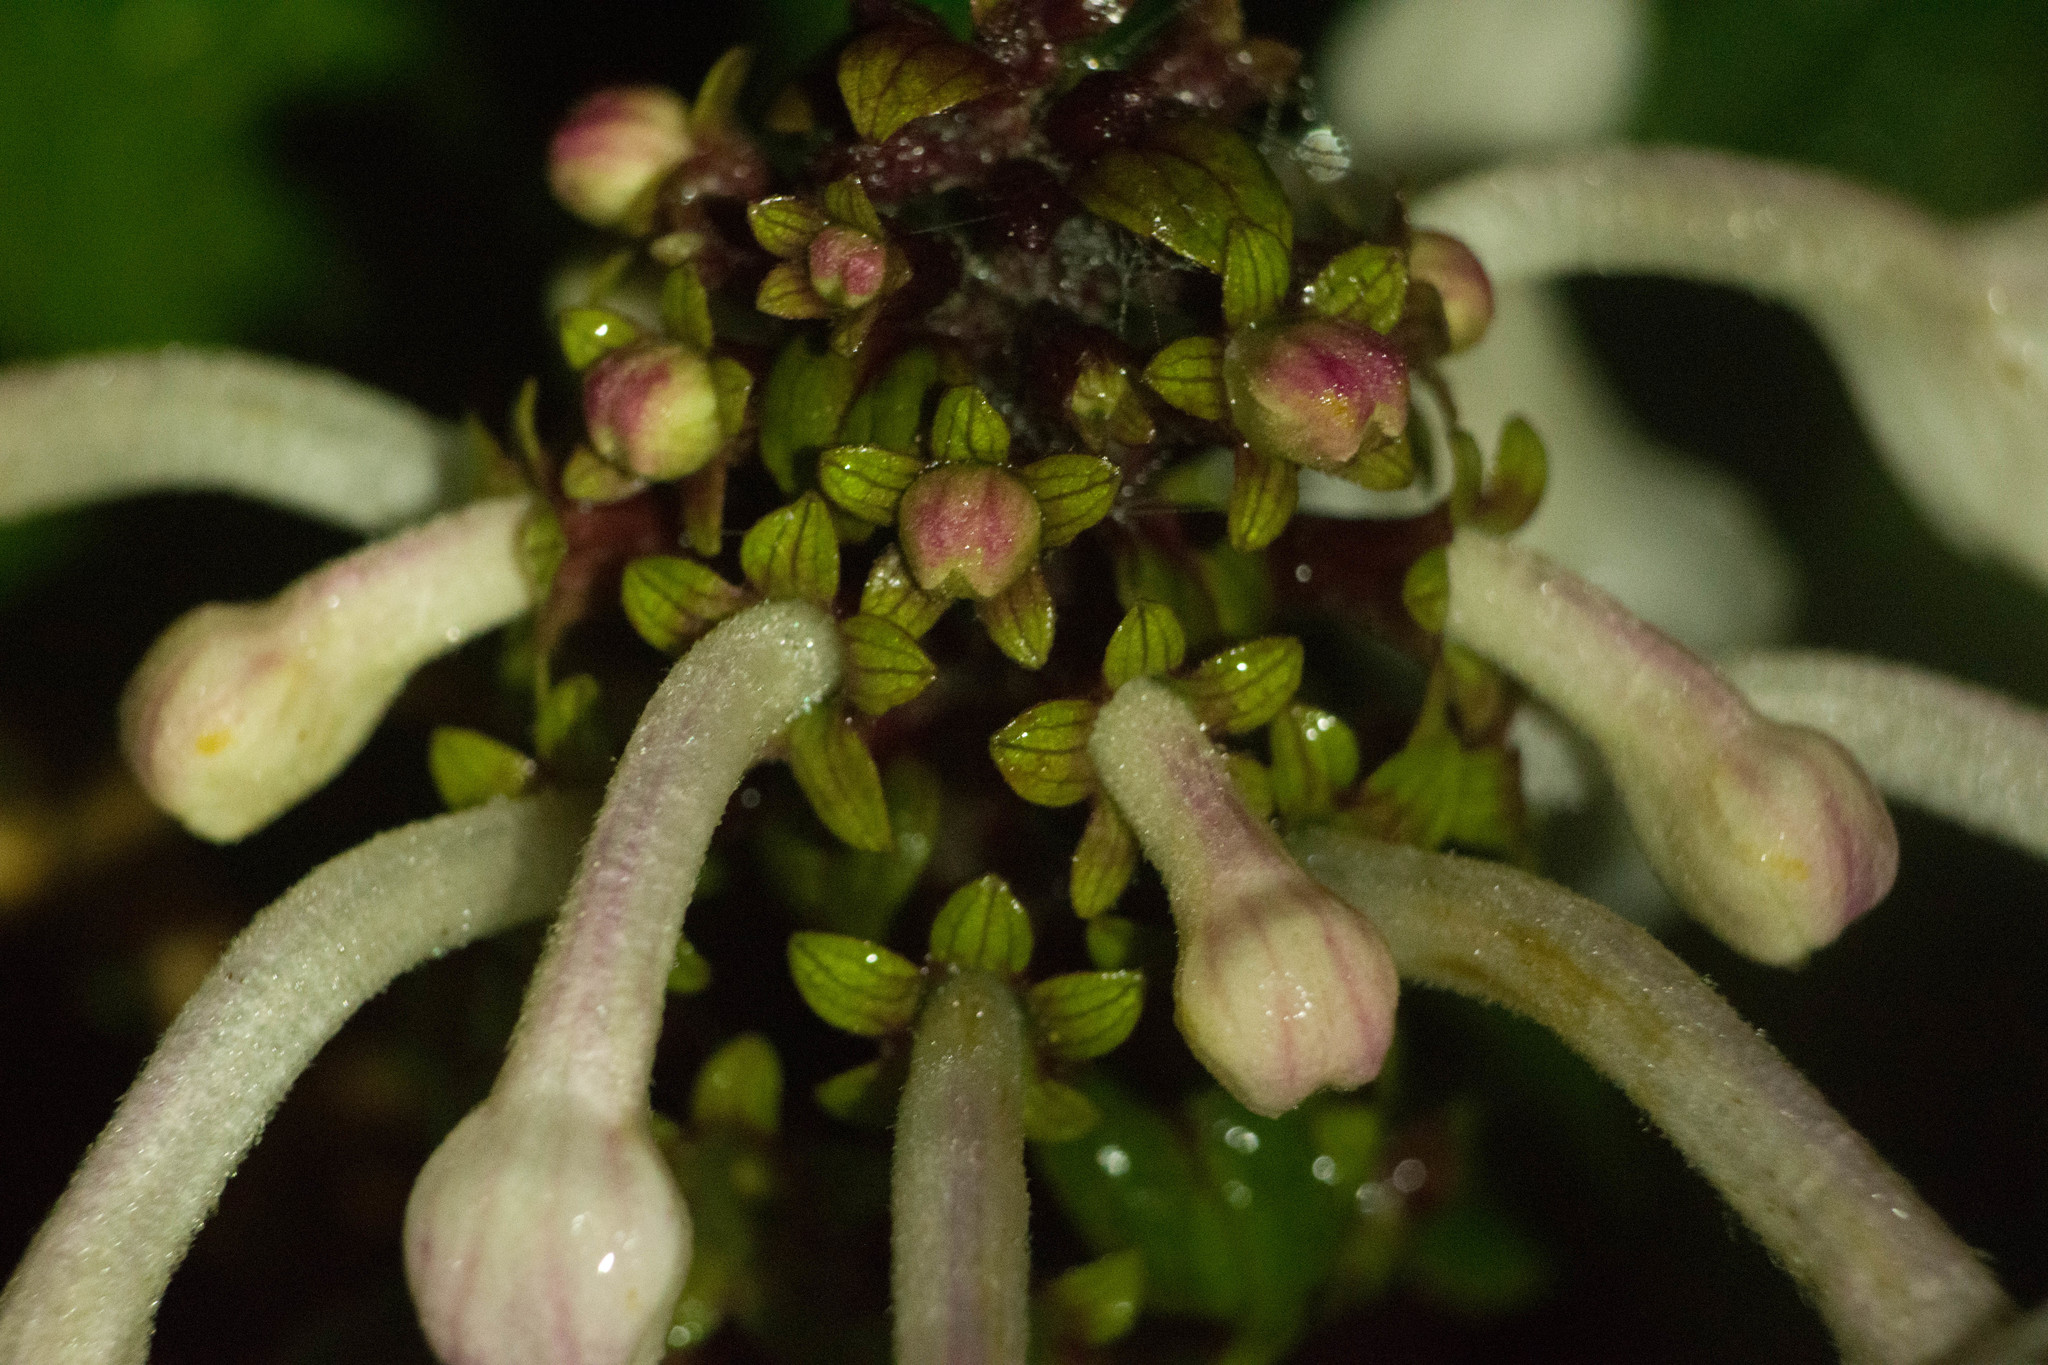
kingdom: Plantae
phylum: Tracheophyta
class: Magnoliopsida
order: Lamiales
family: Lamiaceae
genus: Phyllostegia
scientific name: Phyllostegia grandiflora
